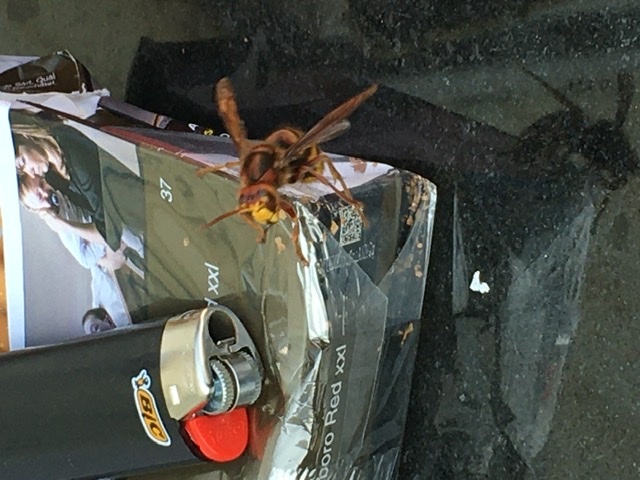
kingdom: Animalia
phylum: Arthropoda
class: Insecta
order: Hymenoptera
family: Vespidae
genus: Vespa
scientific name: Vespa crabro
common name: Hornet
